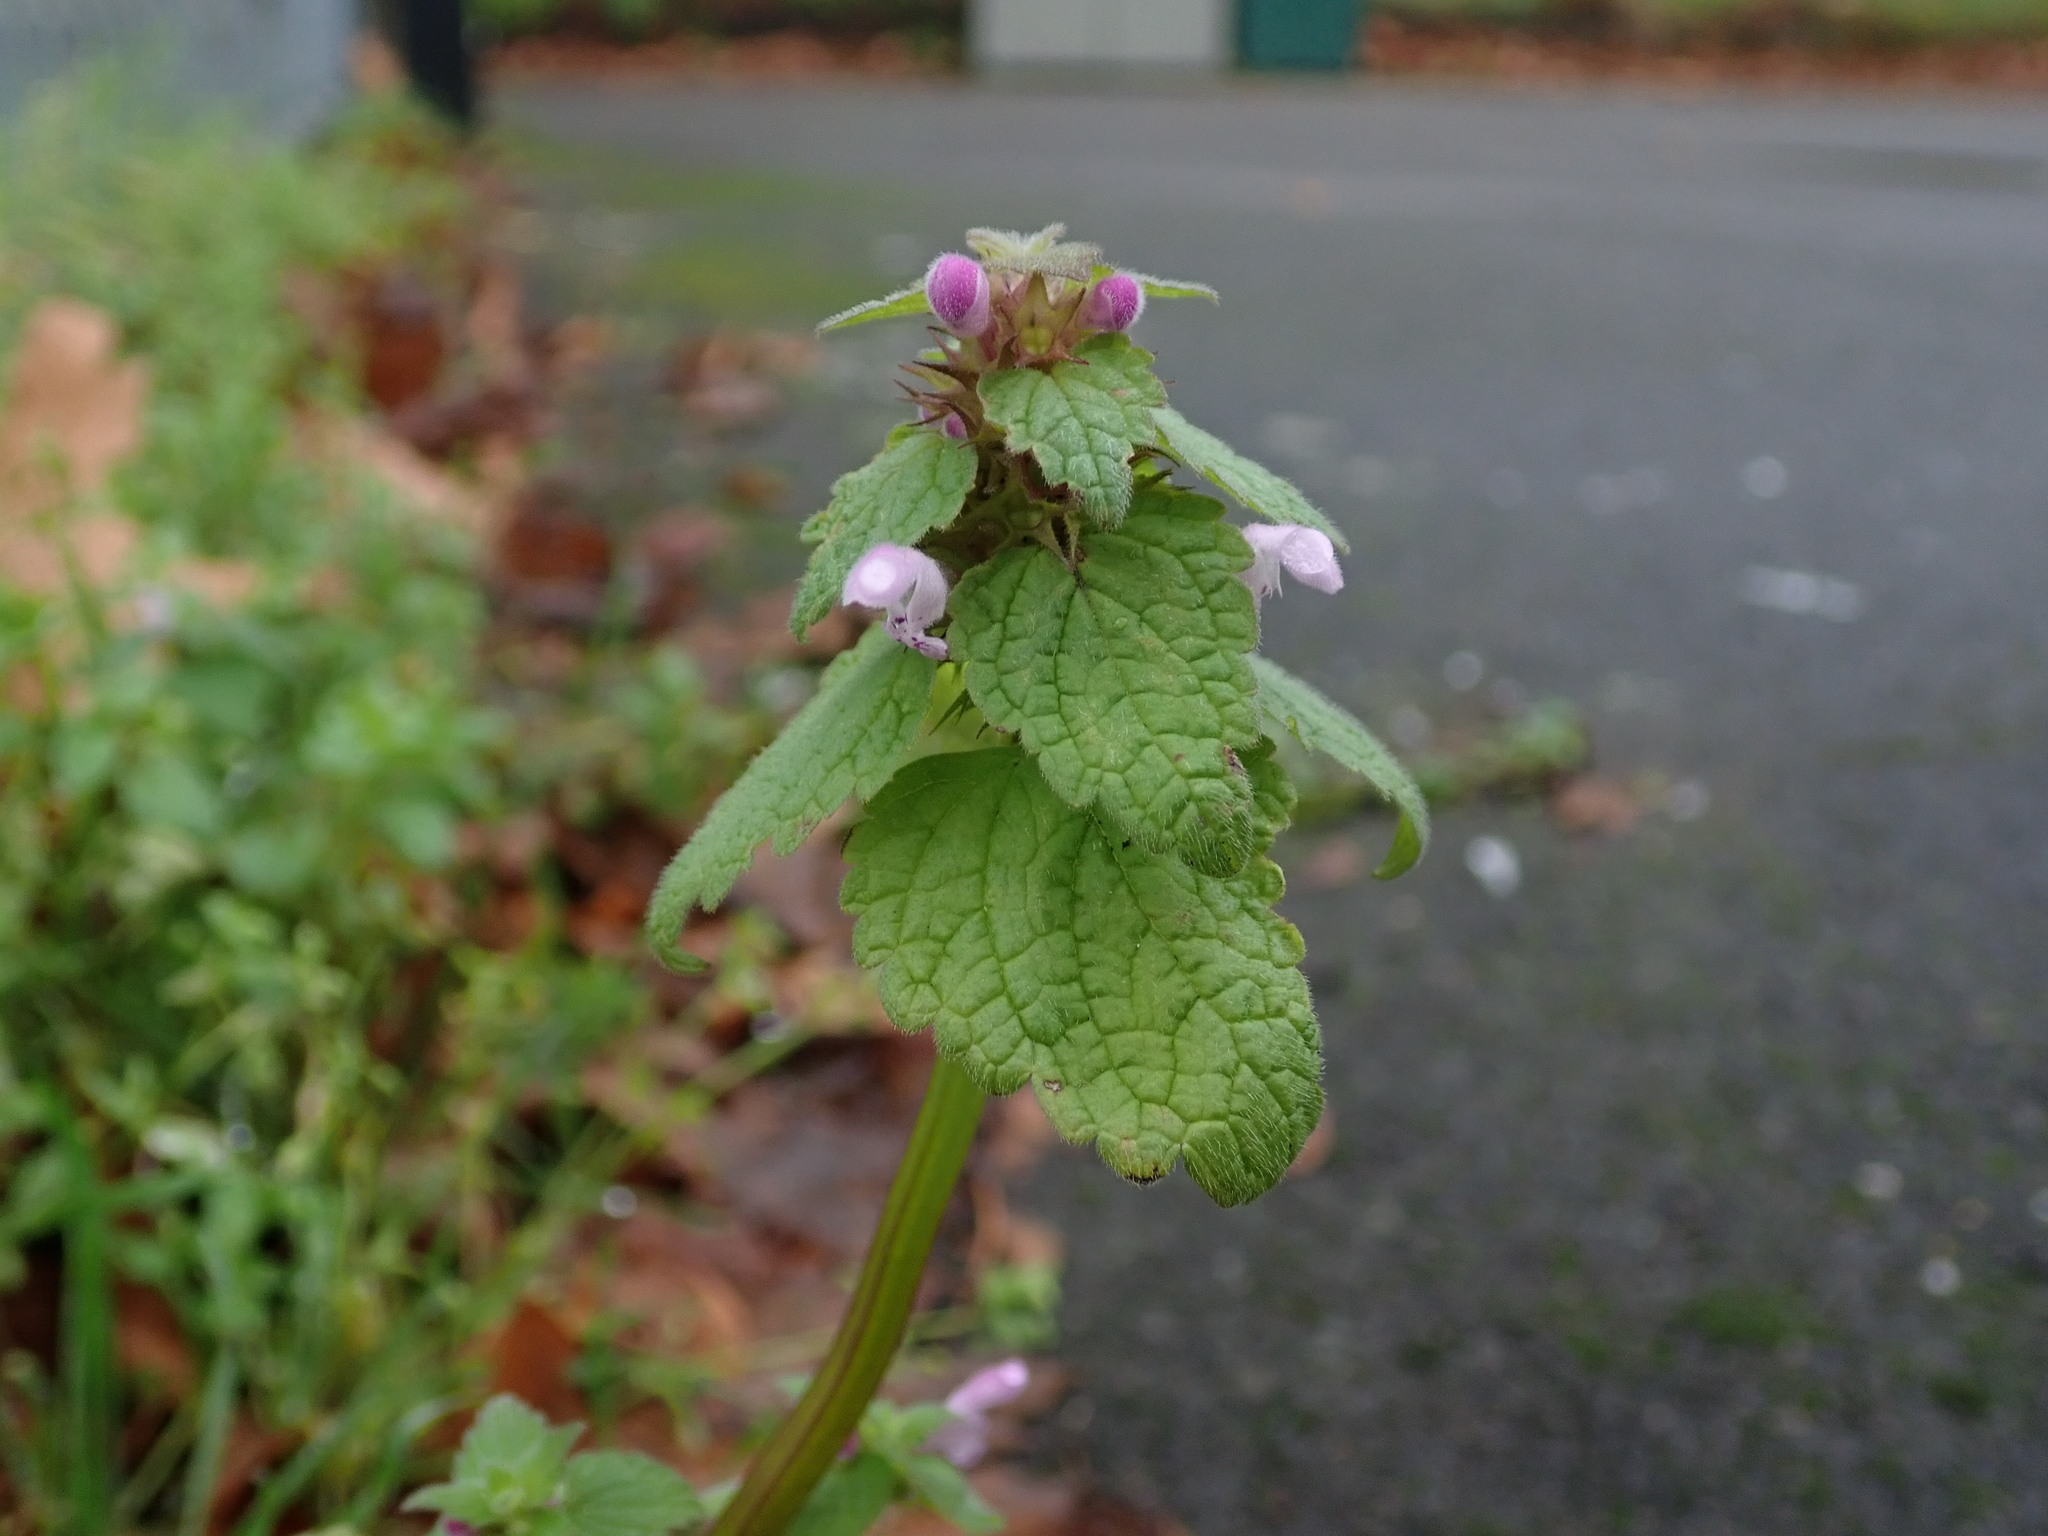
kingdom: Plantae
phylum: Tracheophyta
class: Magnoliopsida
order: Lamiales
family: Lamiaceae
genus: Lamium
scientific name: Lamium purpureum
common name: Red dead-nettle
